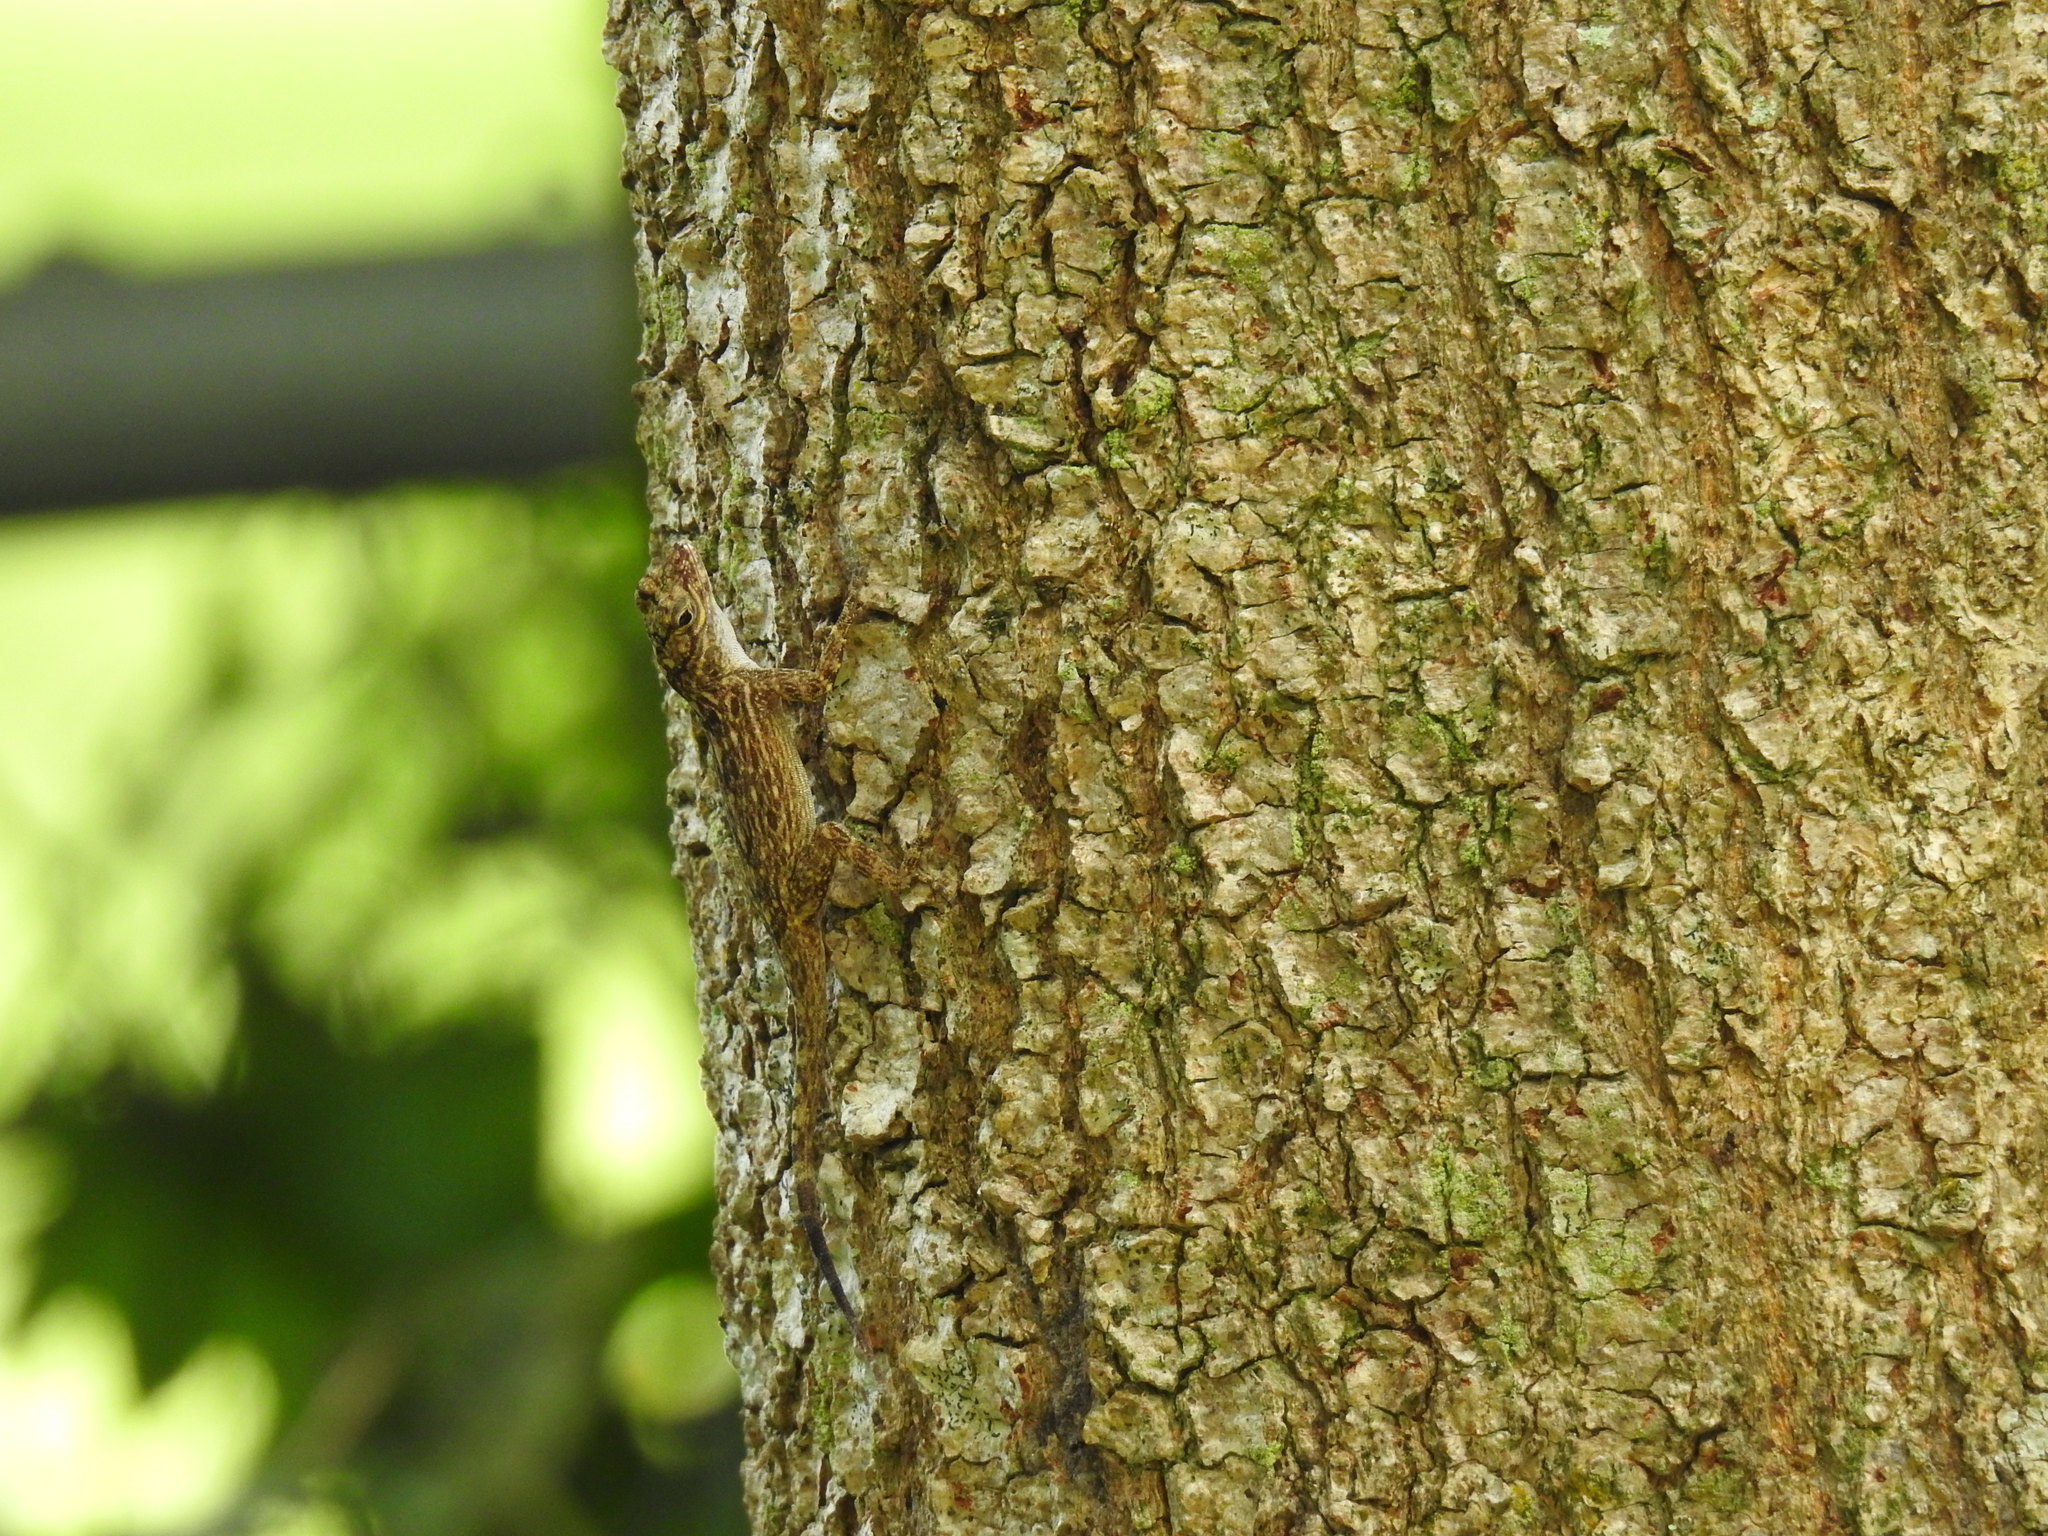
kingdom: Animalia
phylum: Chordata
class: Squamata
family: Dactyloidae
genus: Anolis
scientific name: Anolis distichus
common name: Bark anole
